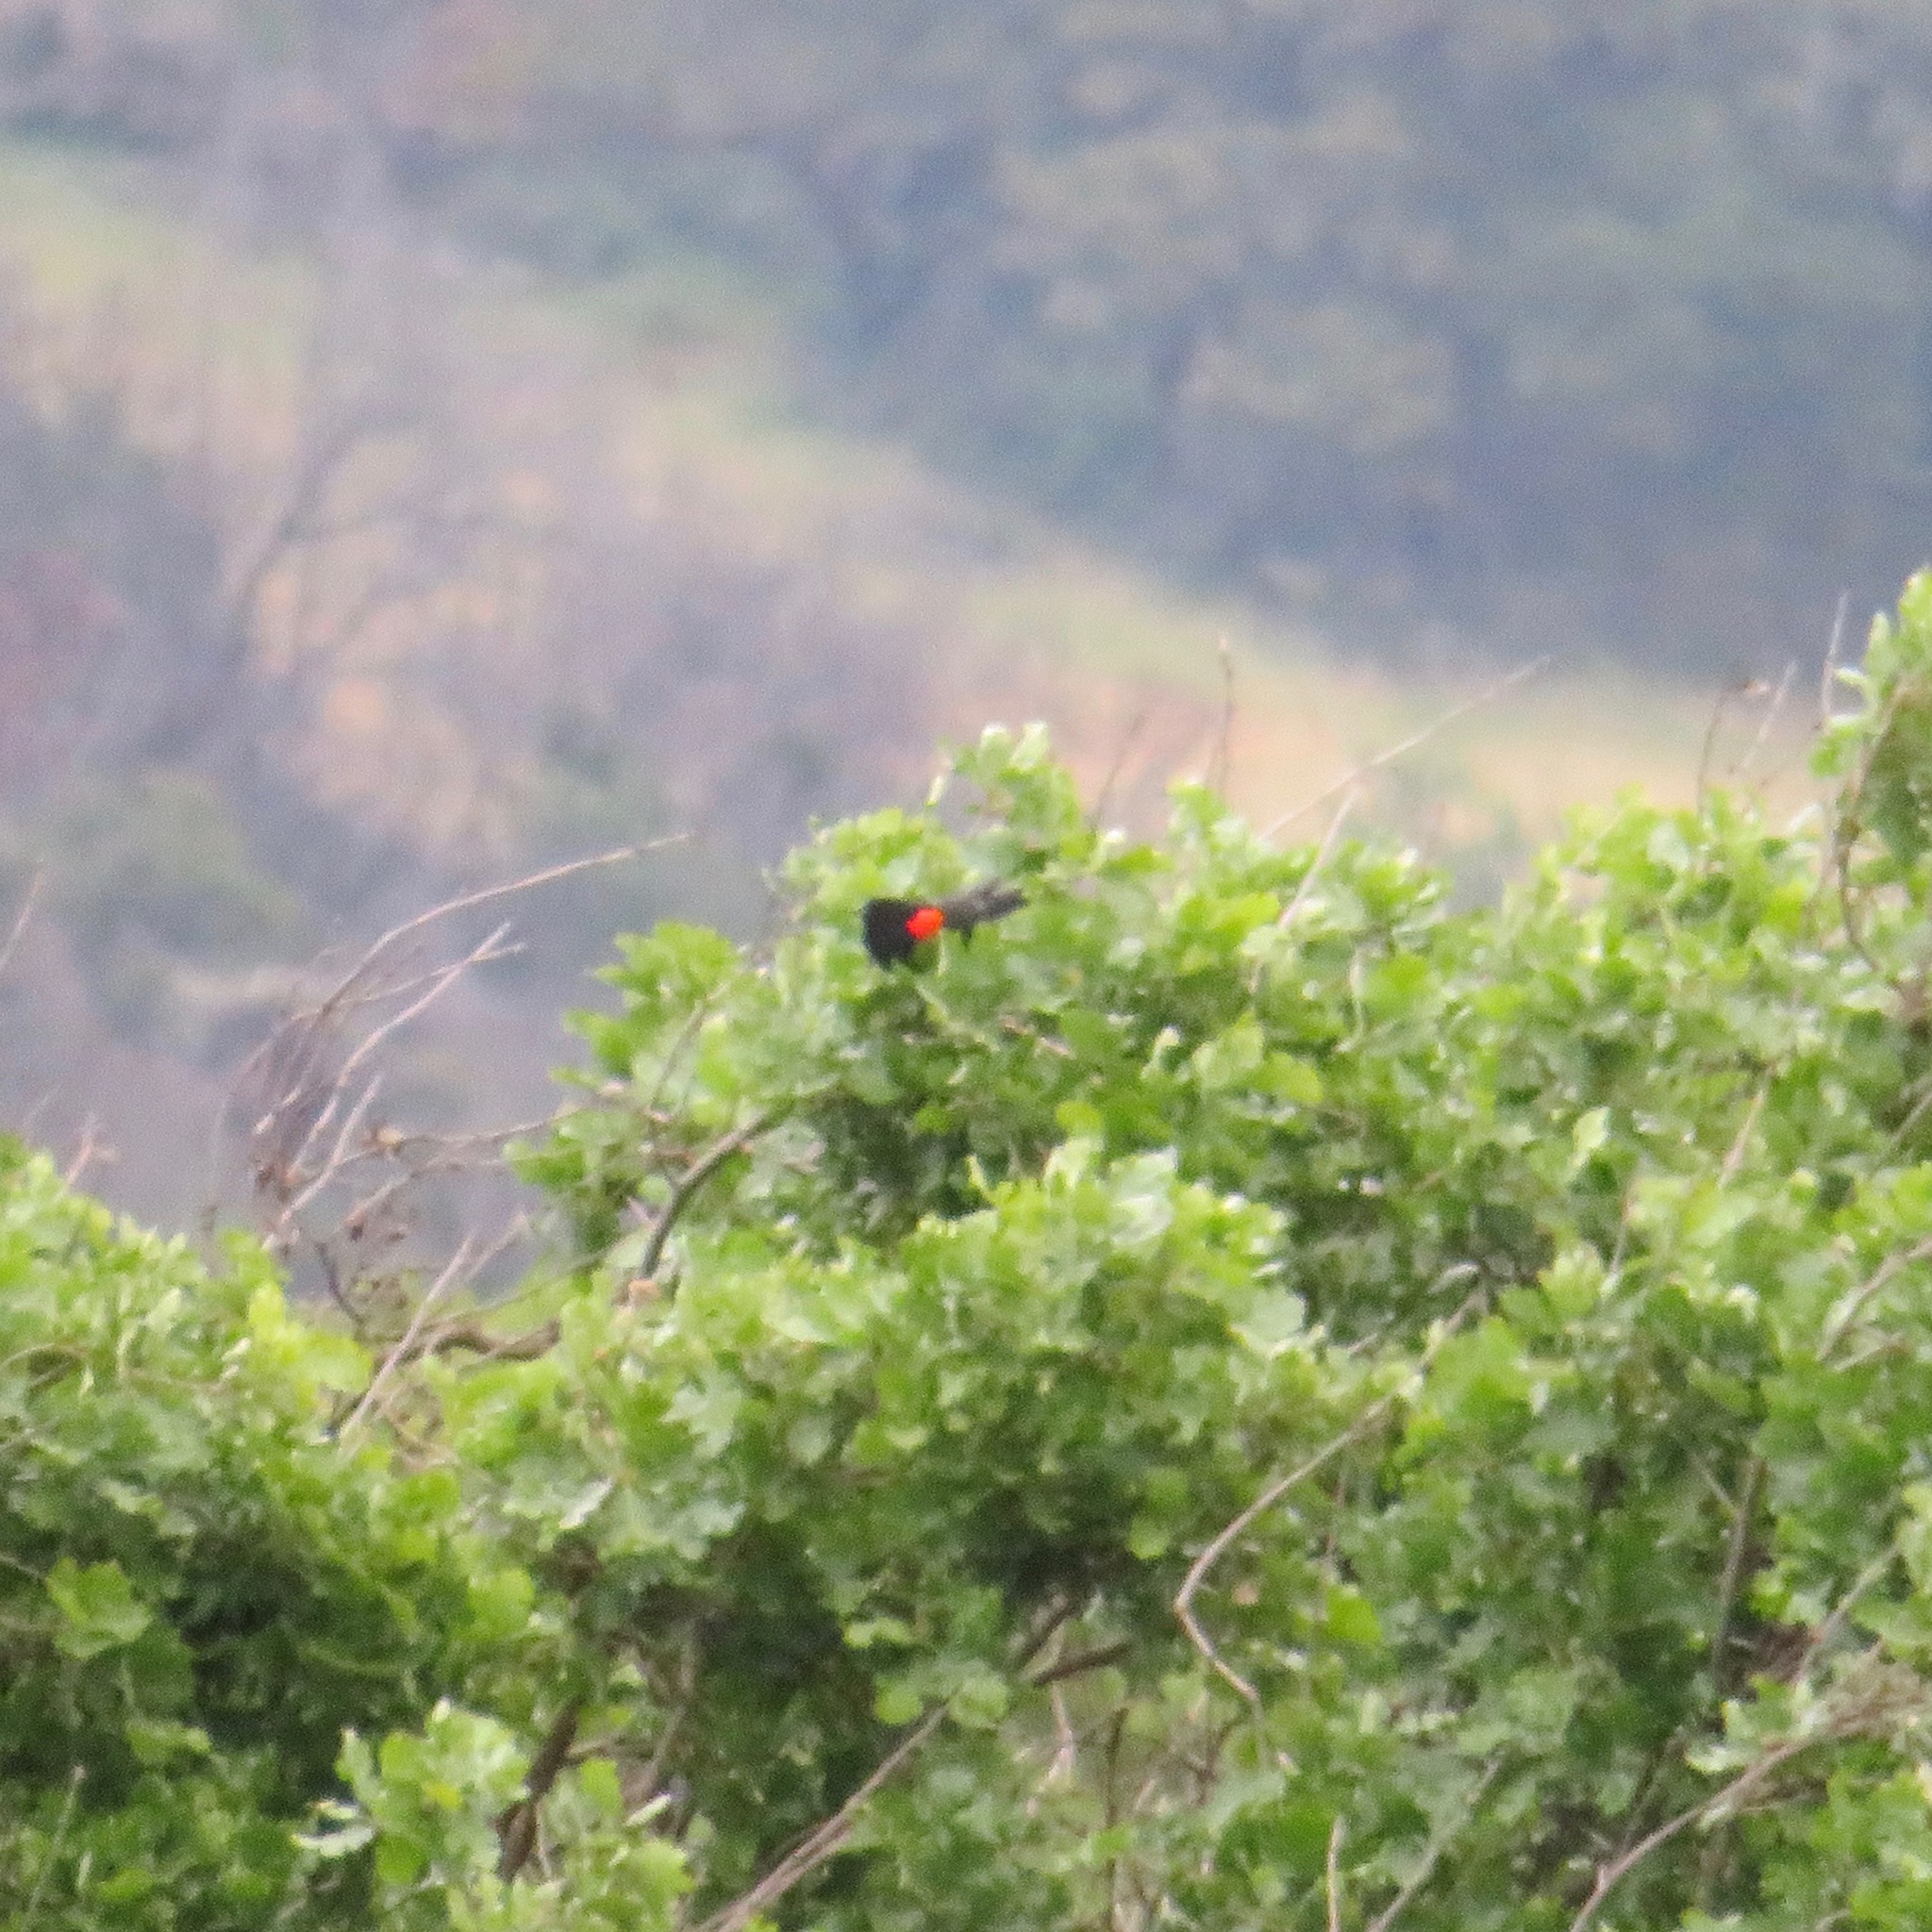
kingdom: Animalia
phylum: Chordata
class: Aves
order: Passeriformes
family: Icteridae
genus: Agelaius
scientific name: Agelaius phoeniceus
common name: Red-winged blackbird
